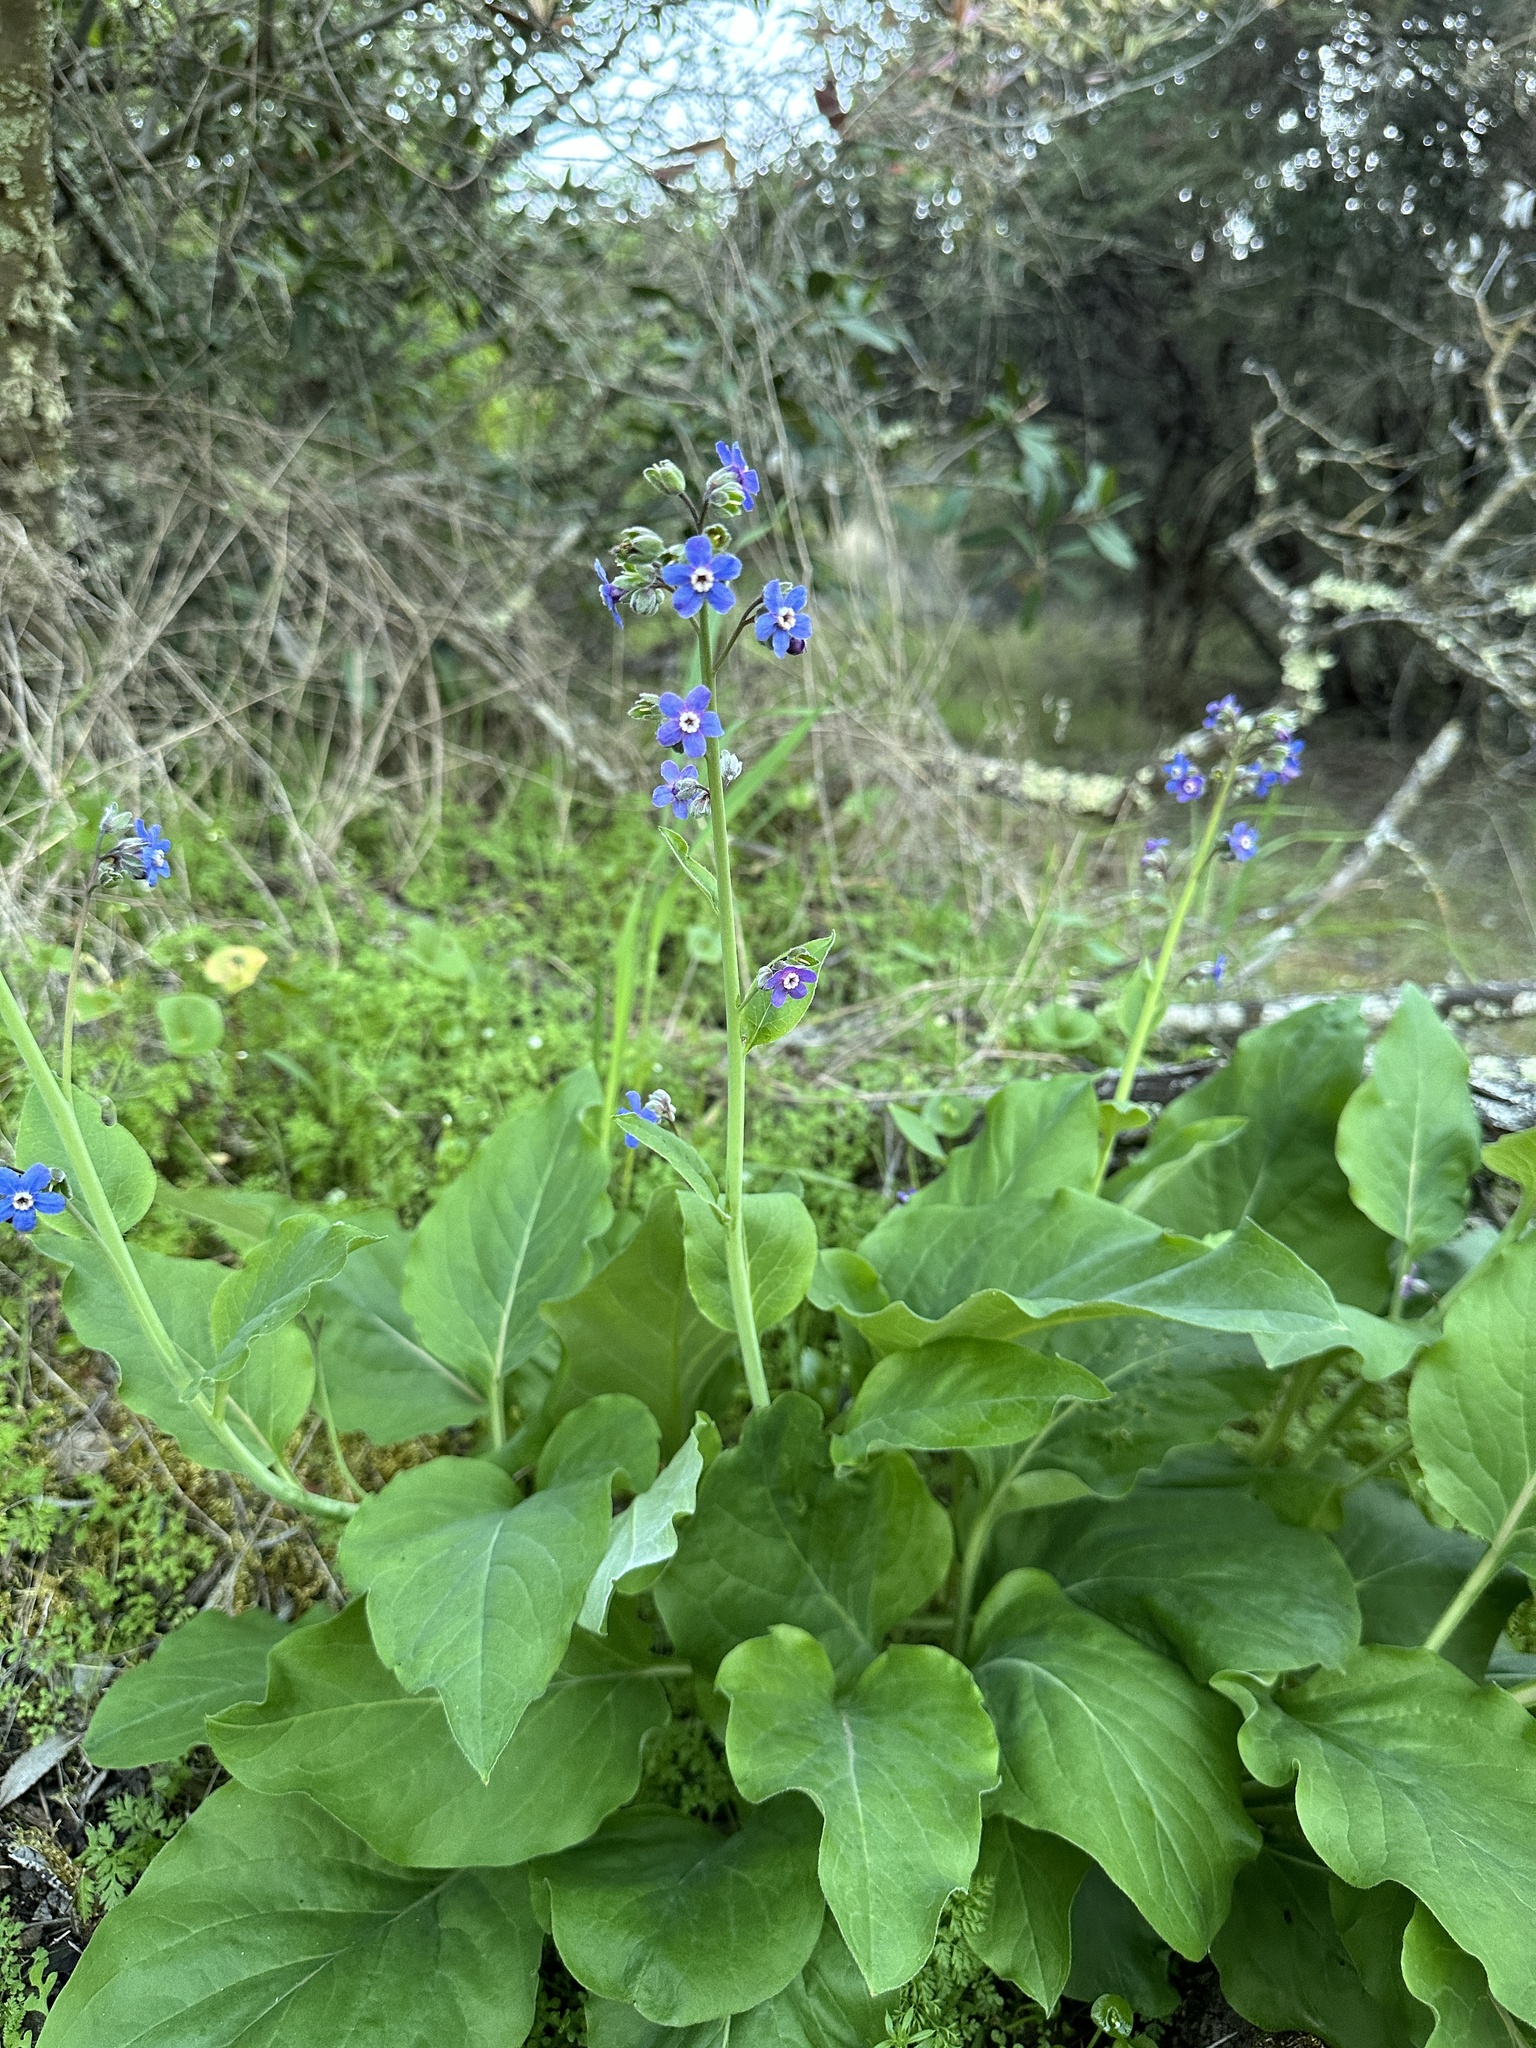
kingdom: Plantae
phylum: Tracheophyta
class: Magnoliopsida
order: Boraginales
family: Boraginaceae
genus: Adelinia
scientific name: Adelinia grande
